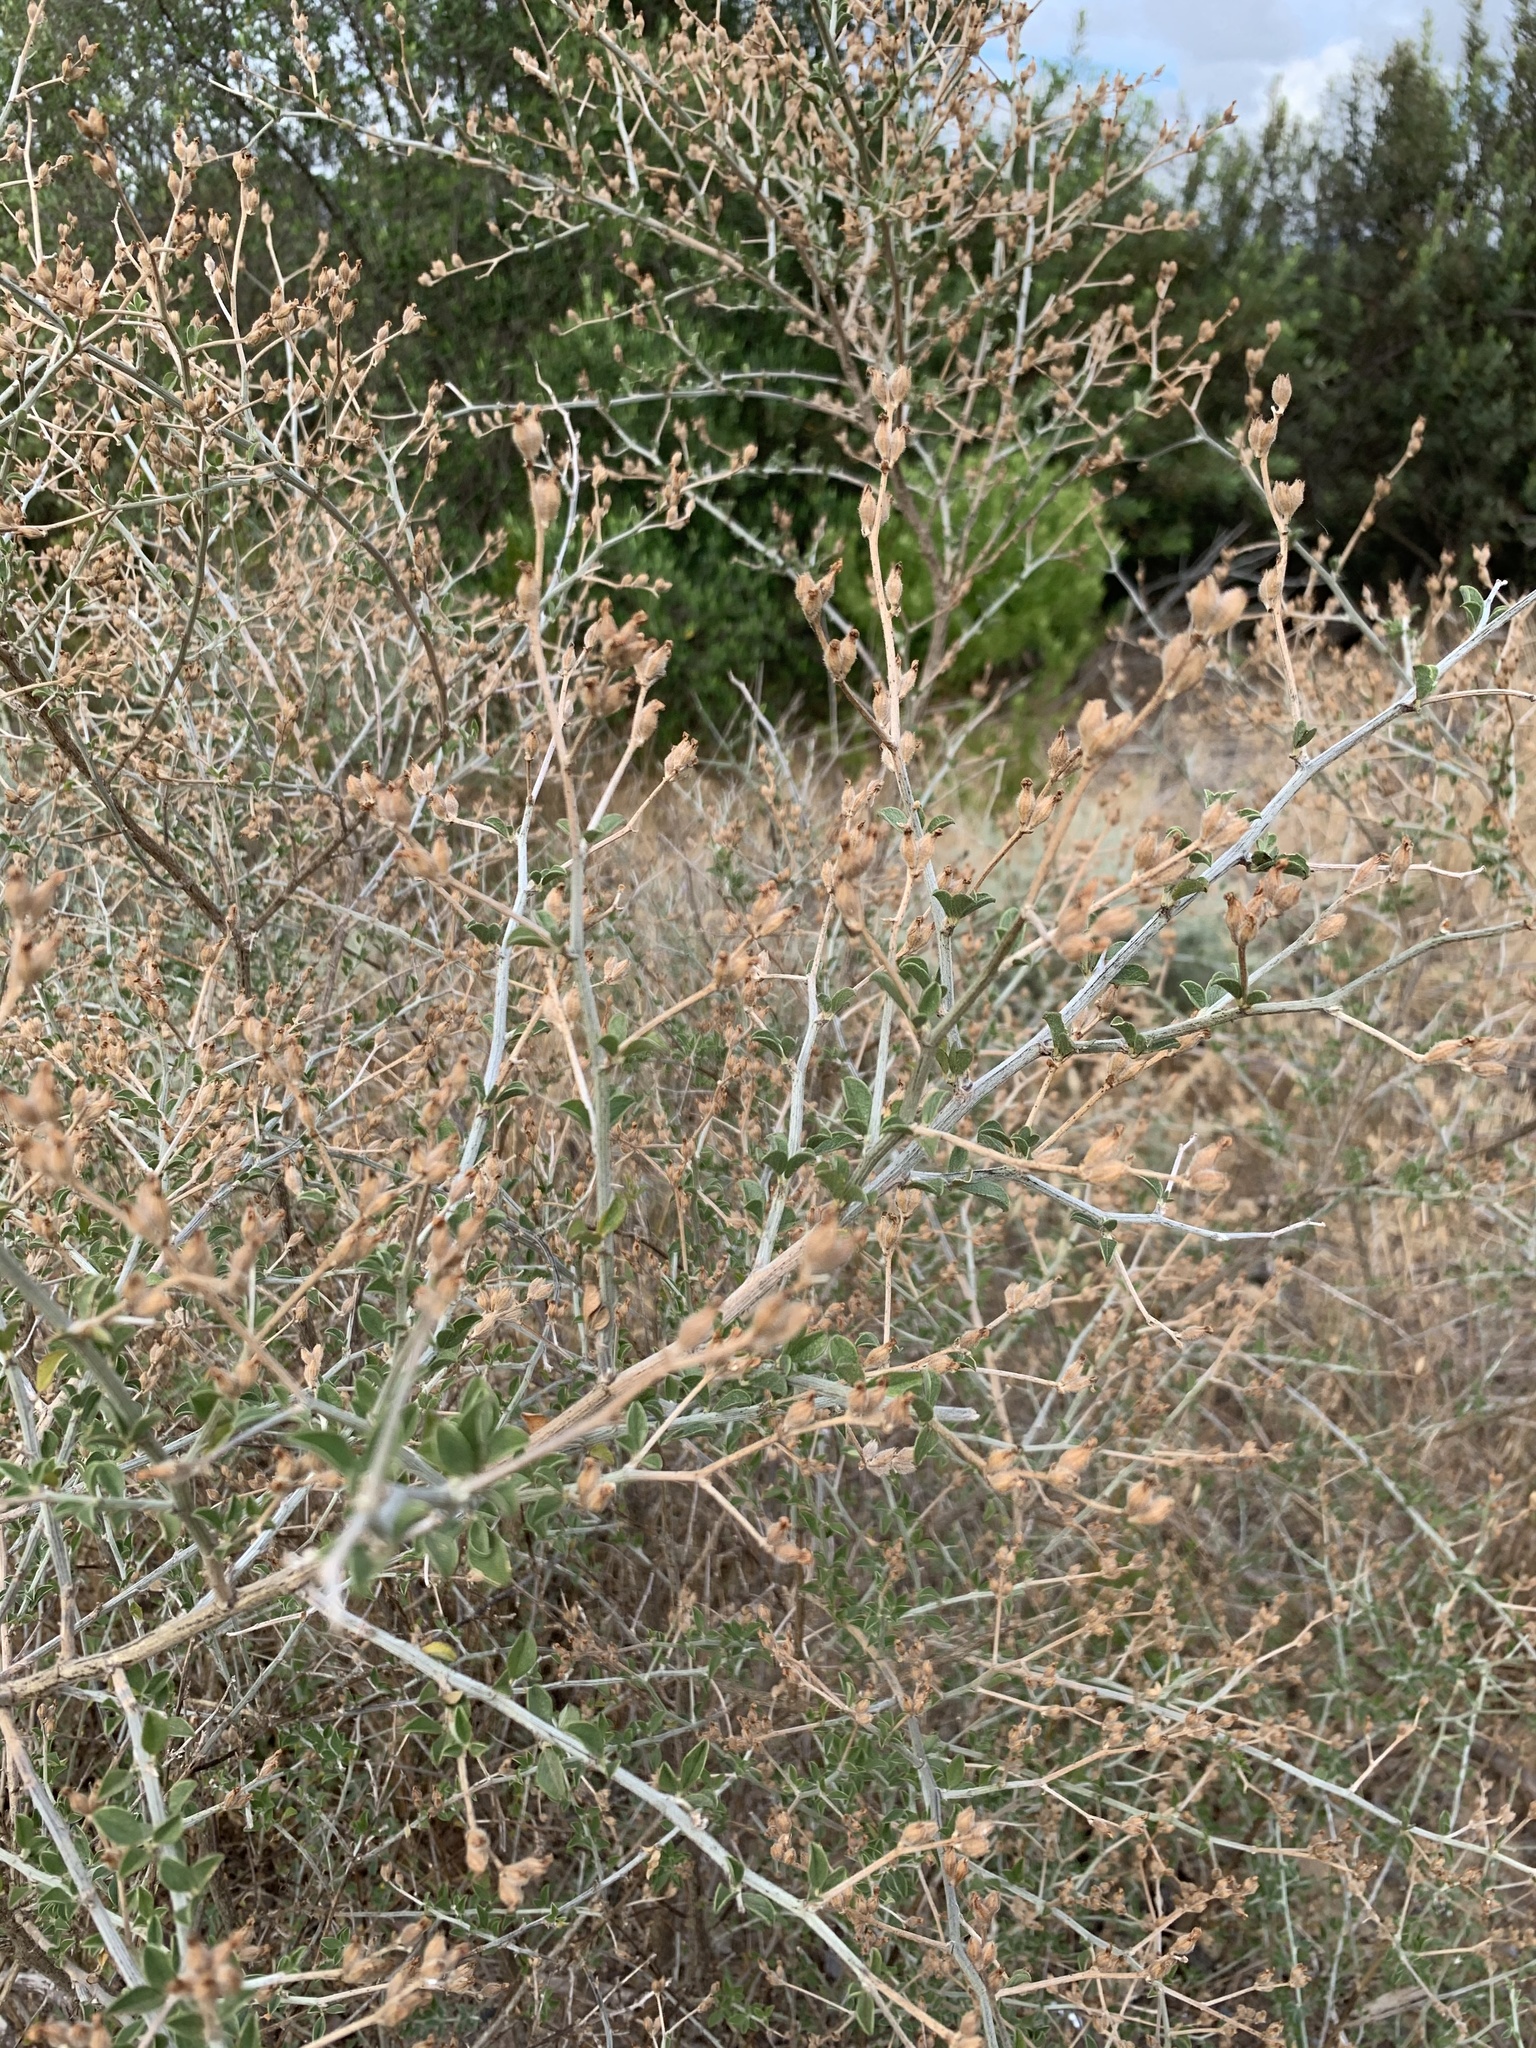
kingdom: Plantae
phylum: Tracheophyta
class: Magnoliopsida
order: Fabales
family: Fabaceae
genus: Psoralea
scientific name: Psoralea hirta
